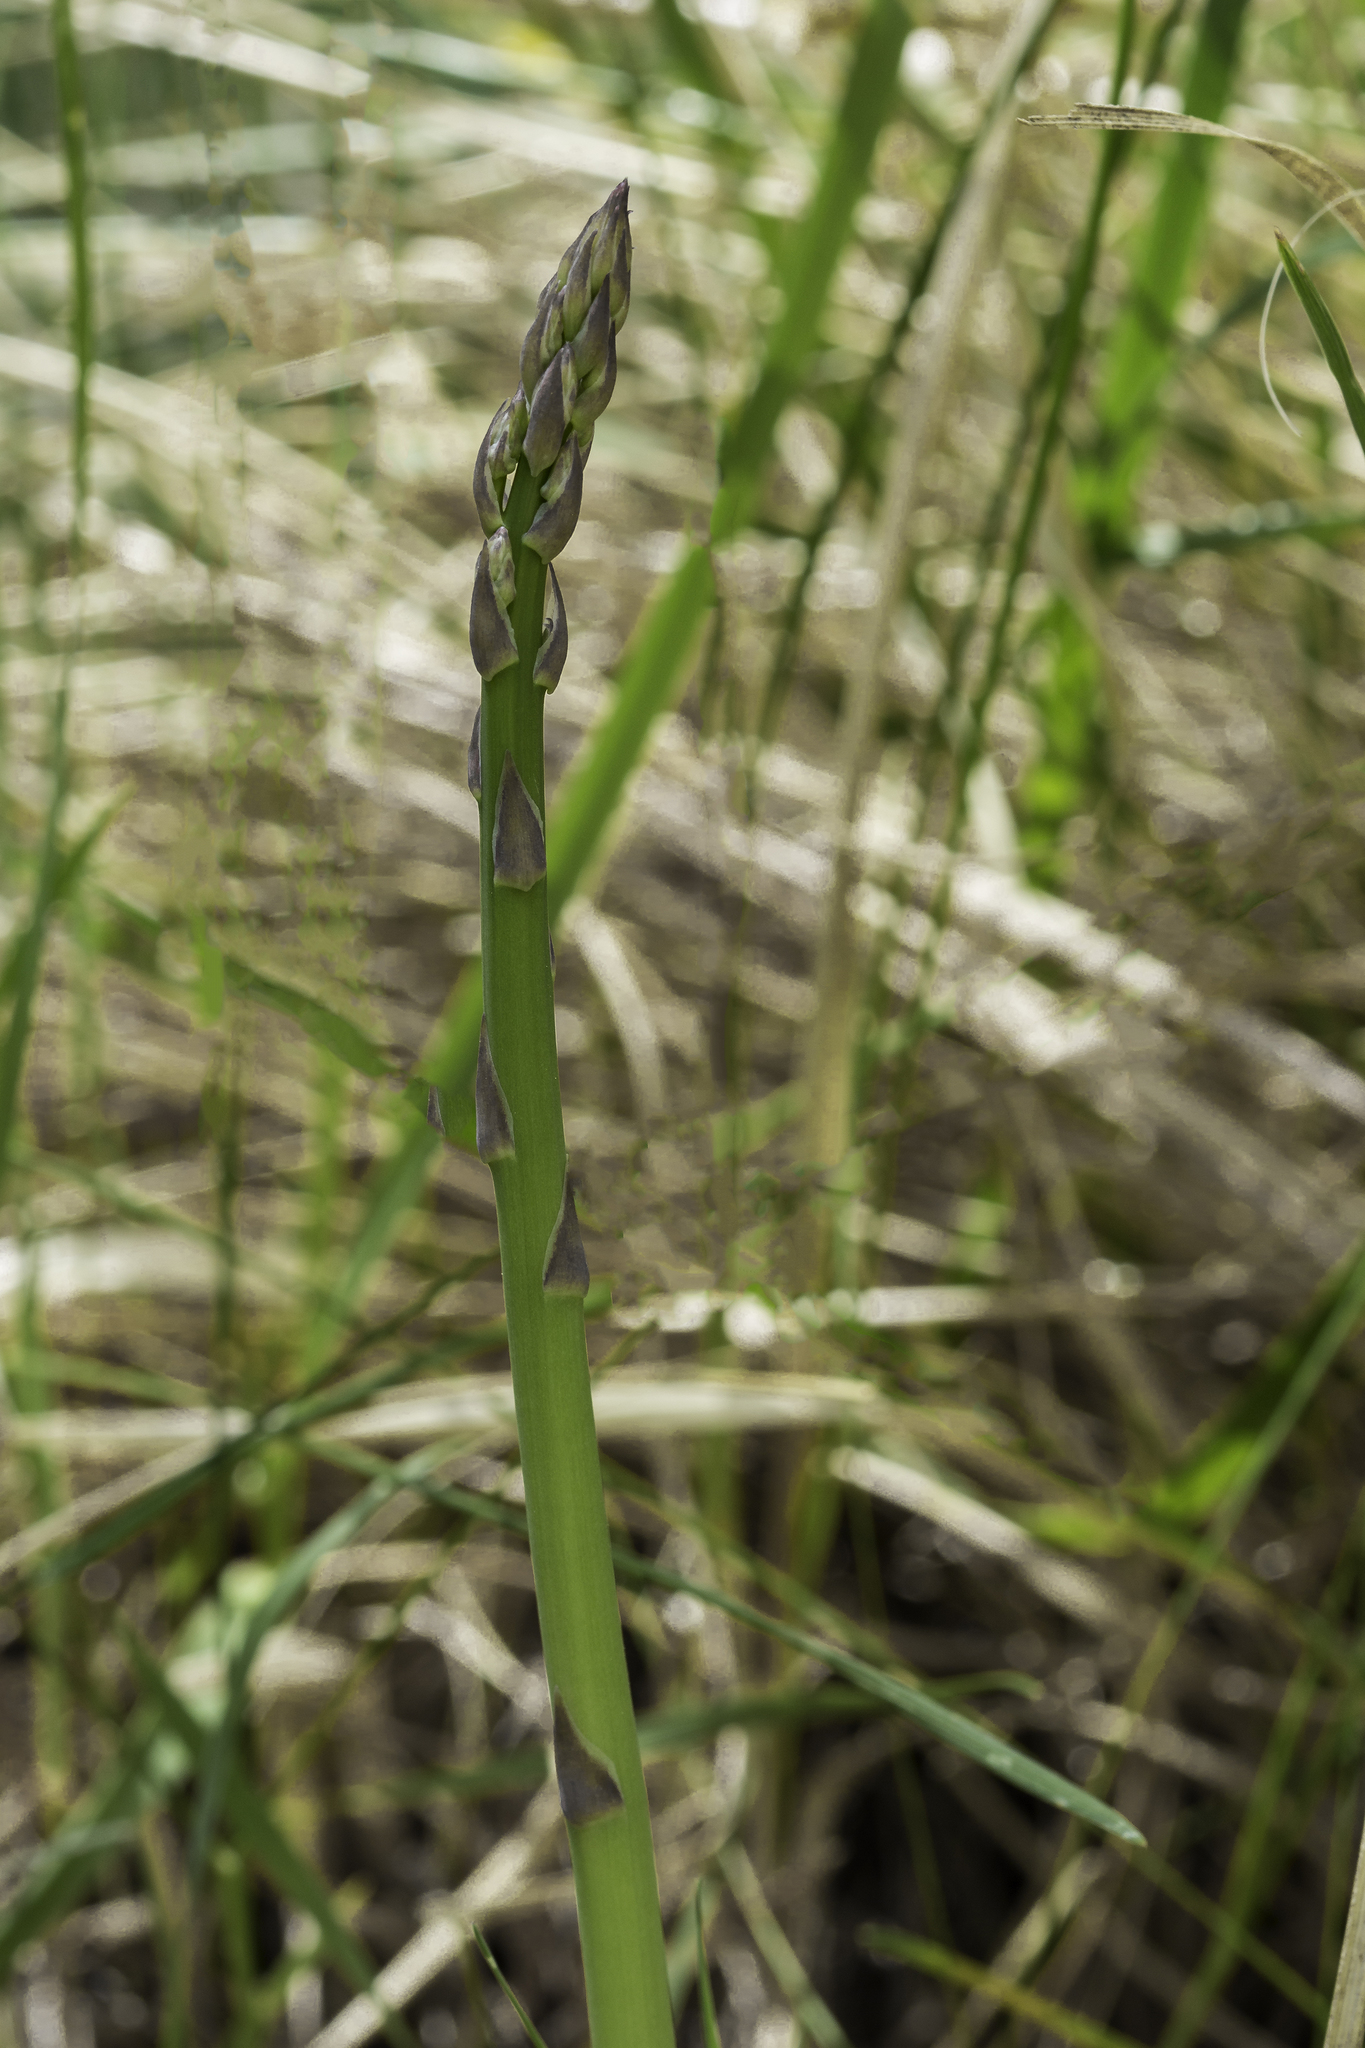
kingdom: Plantae
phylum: Tracheophyta
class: Liliopsida
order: Asparagales
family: Asparagaceae
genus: Asparagus
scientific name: Asparagus officinalis
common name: Garden asparagus
